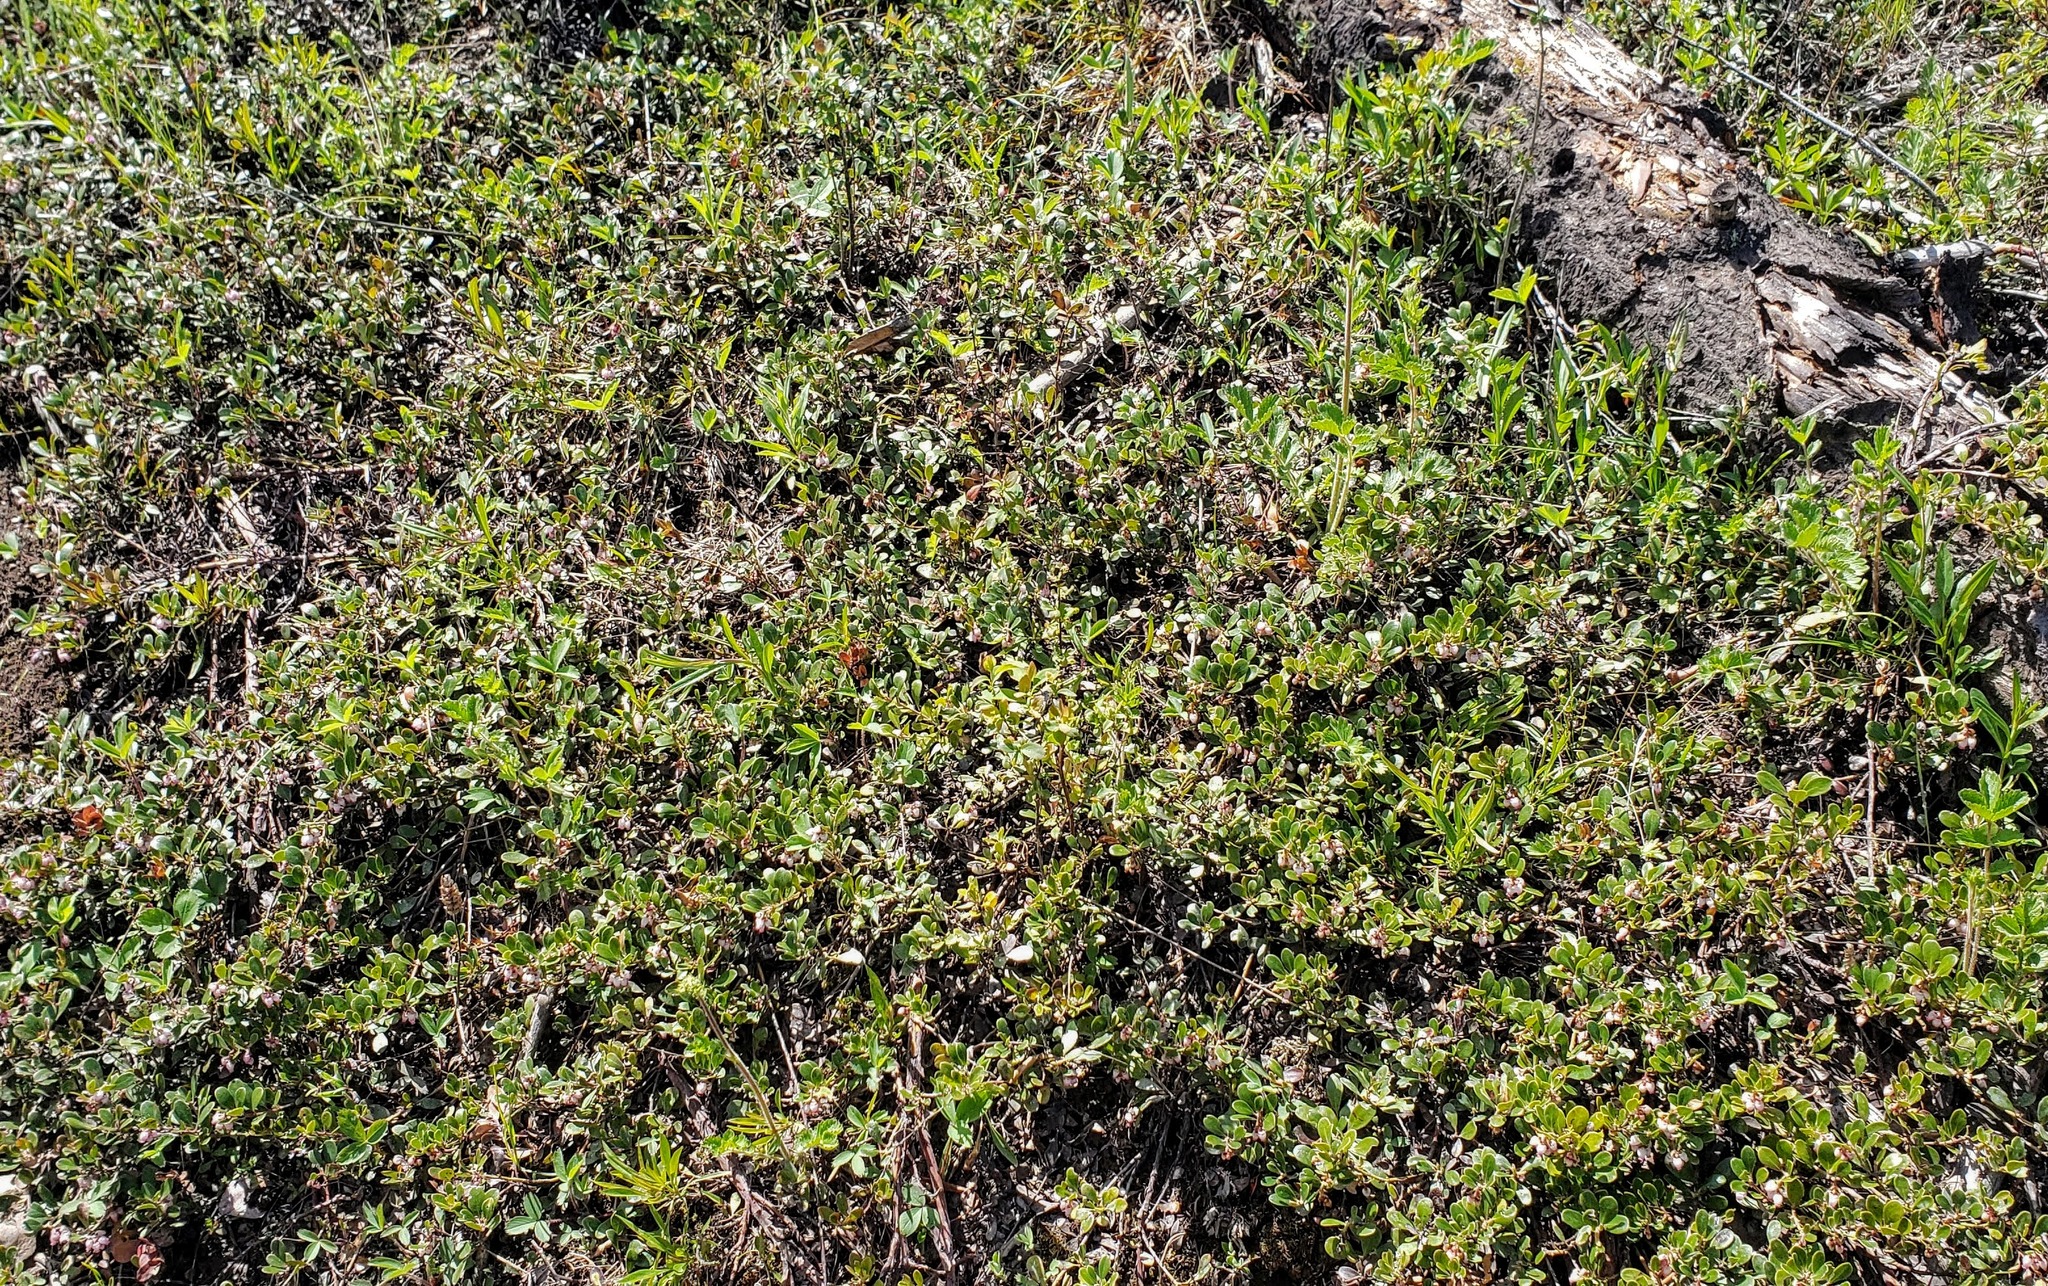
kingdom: Plantae
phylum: Tracheophyta
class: Magnoliopsida
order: Ericales
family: Ericaceae
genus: Arctostaphylos
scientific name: Arctostaphylos uva-ursi
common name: Bearberry
